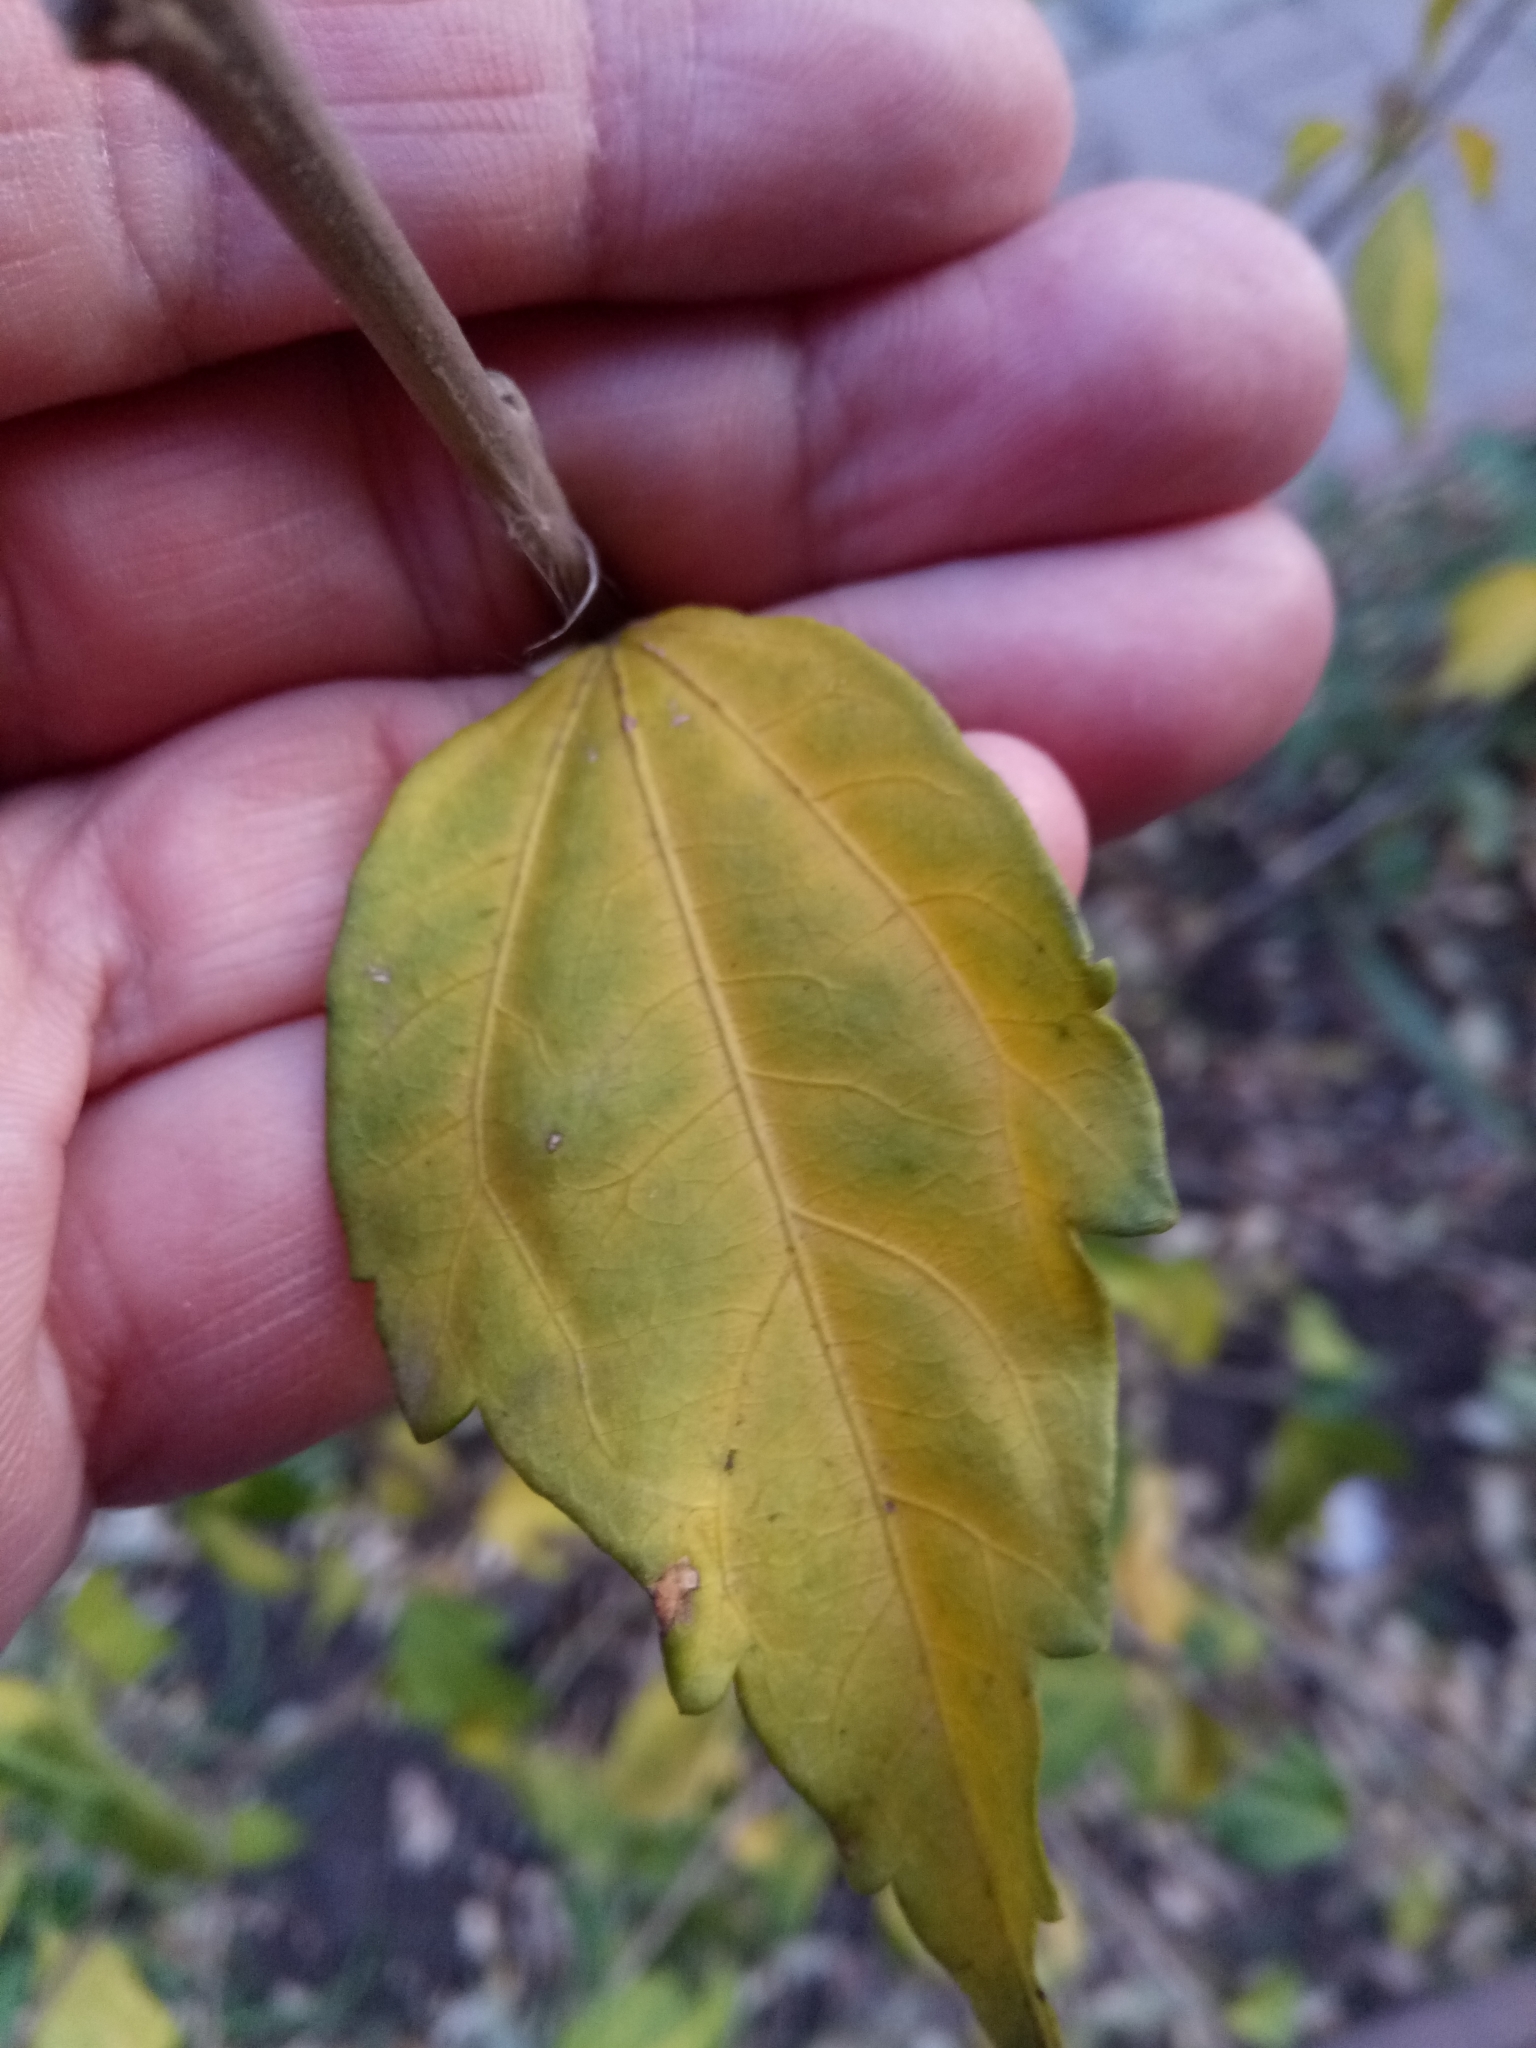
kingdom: Plantae
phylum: Tracheophyta
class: Magnoliopsida
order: Malvales
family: Malvaceae
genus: Hibiscus
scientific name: Hibiscus syriacus
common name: Syrian ketmia
